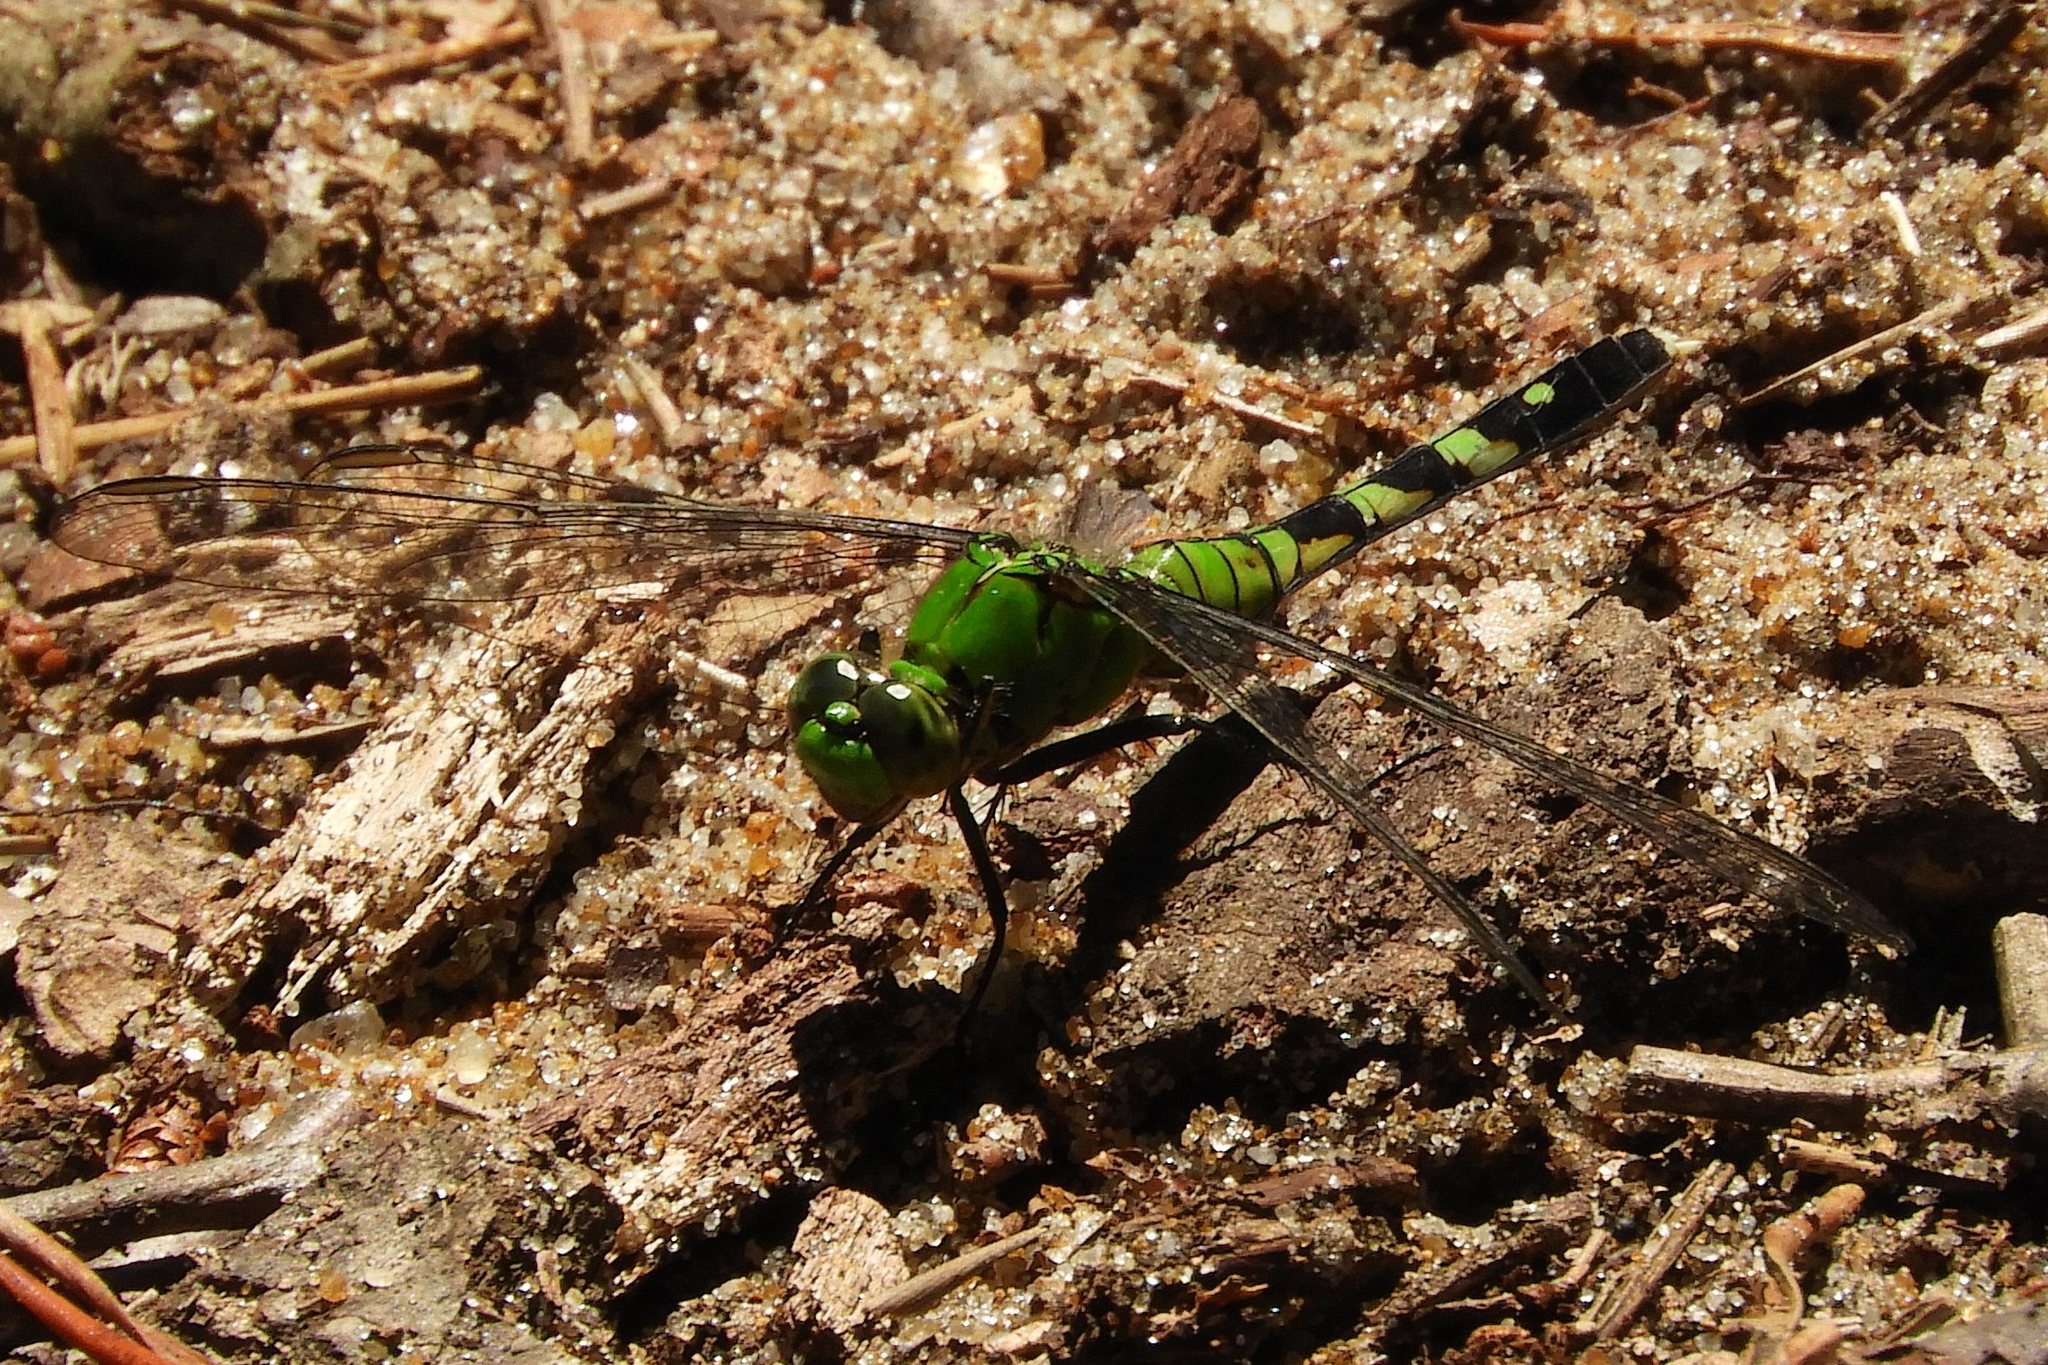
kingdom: Animalia
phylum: Arthropoda
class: Insecta
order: Odonata
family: Libellulidae
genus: Erythemis
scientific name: Erythemis simplicicollis
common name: Eastern pondhawk
